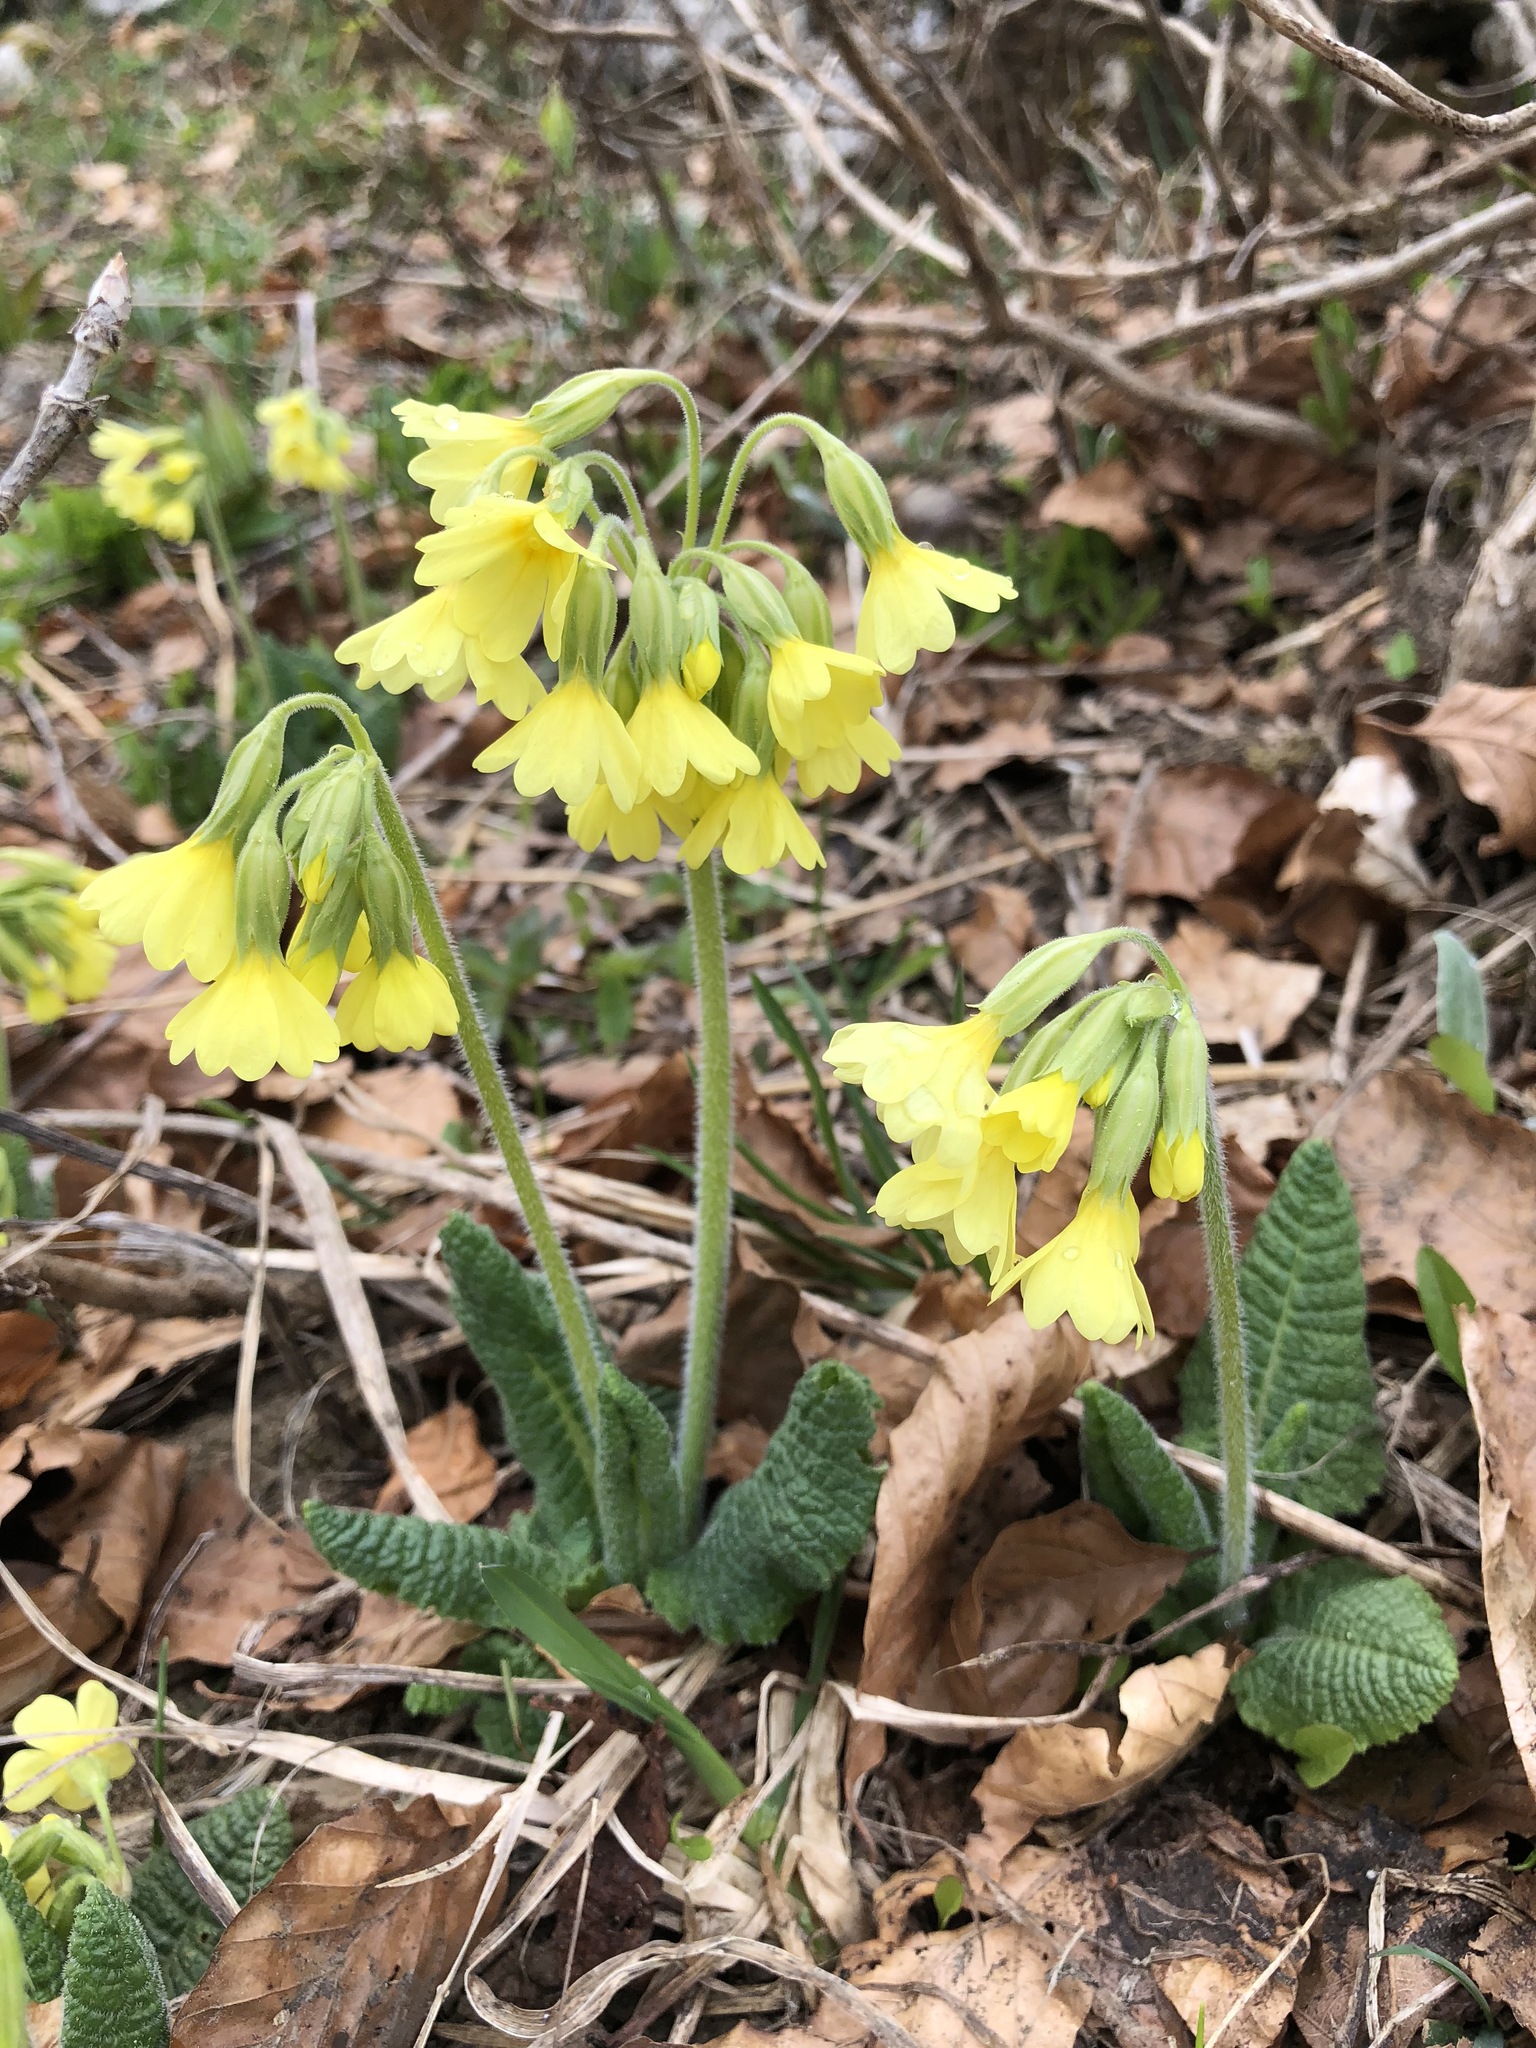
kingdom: Plantae
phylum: Tracheophyta
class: Magnoliopsida
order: Ericales
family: Primulaceae
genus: Primula
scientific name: Primula elatior
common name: Oxlip
